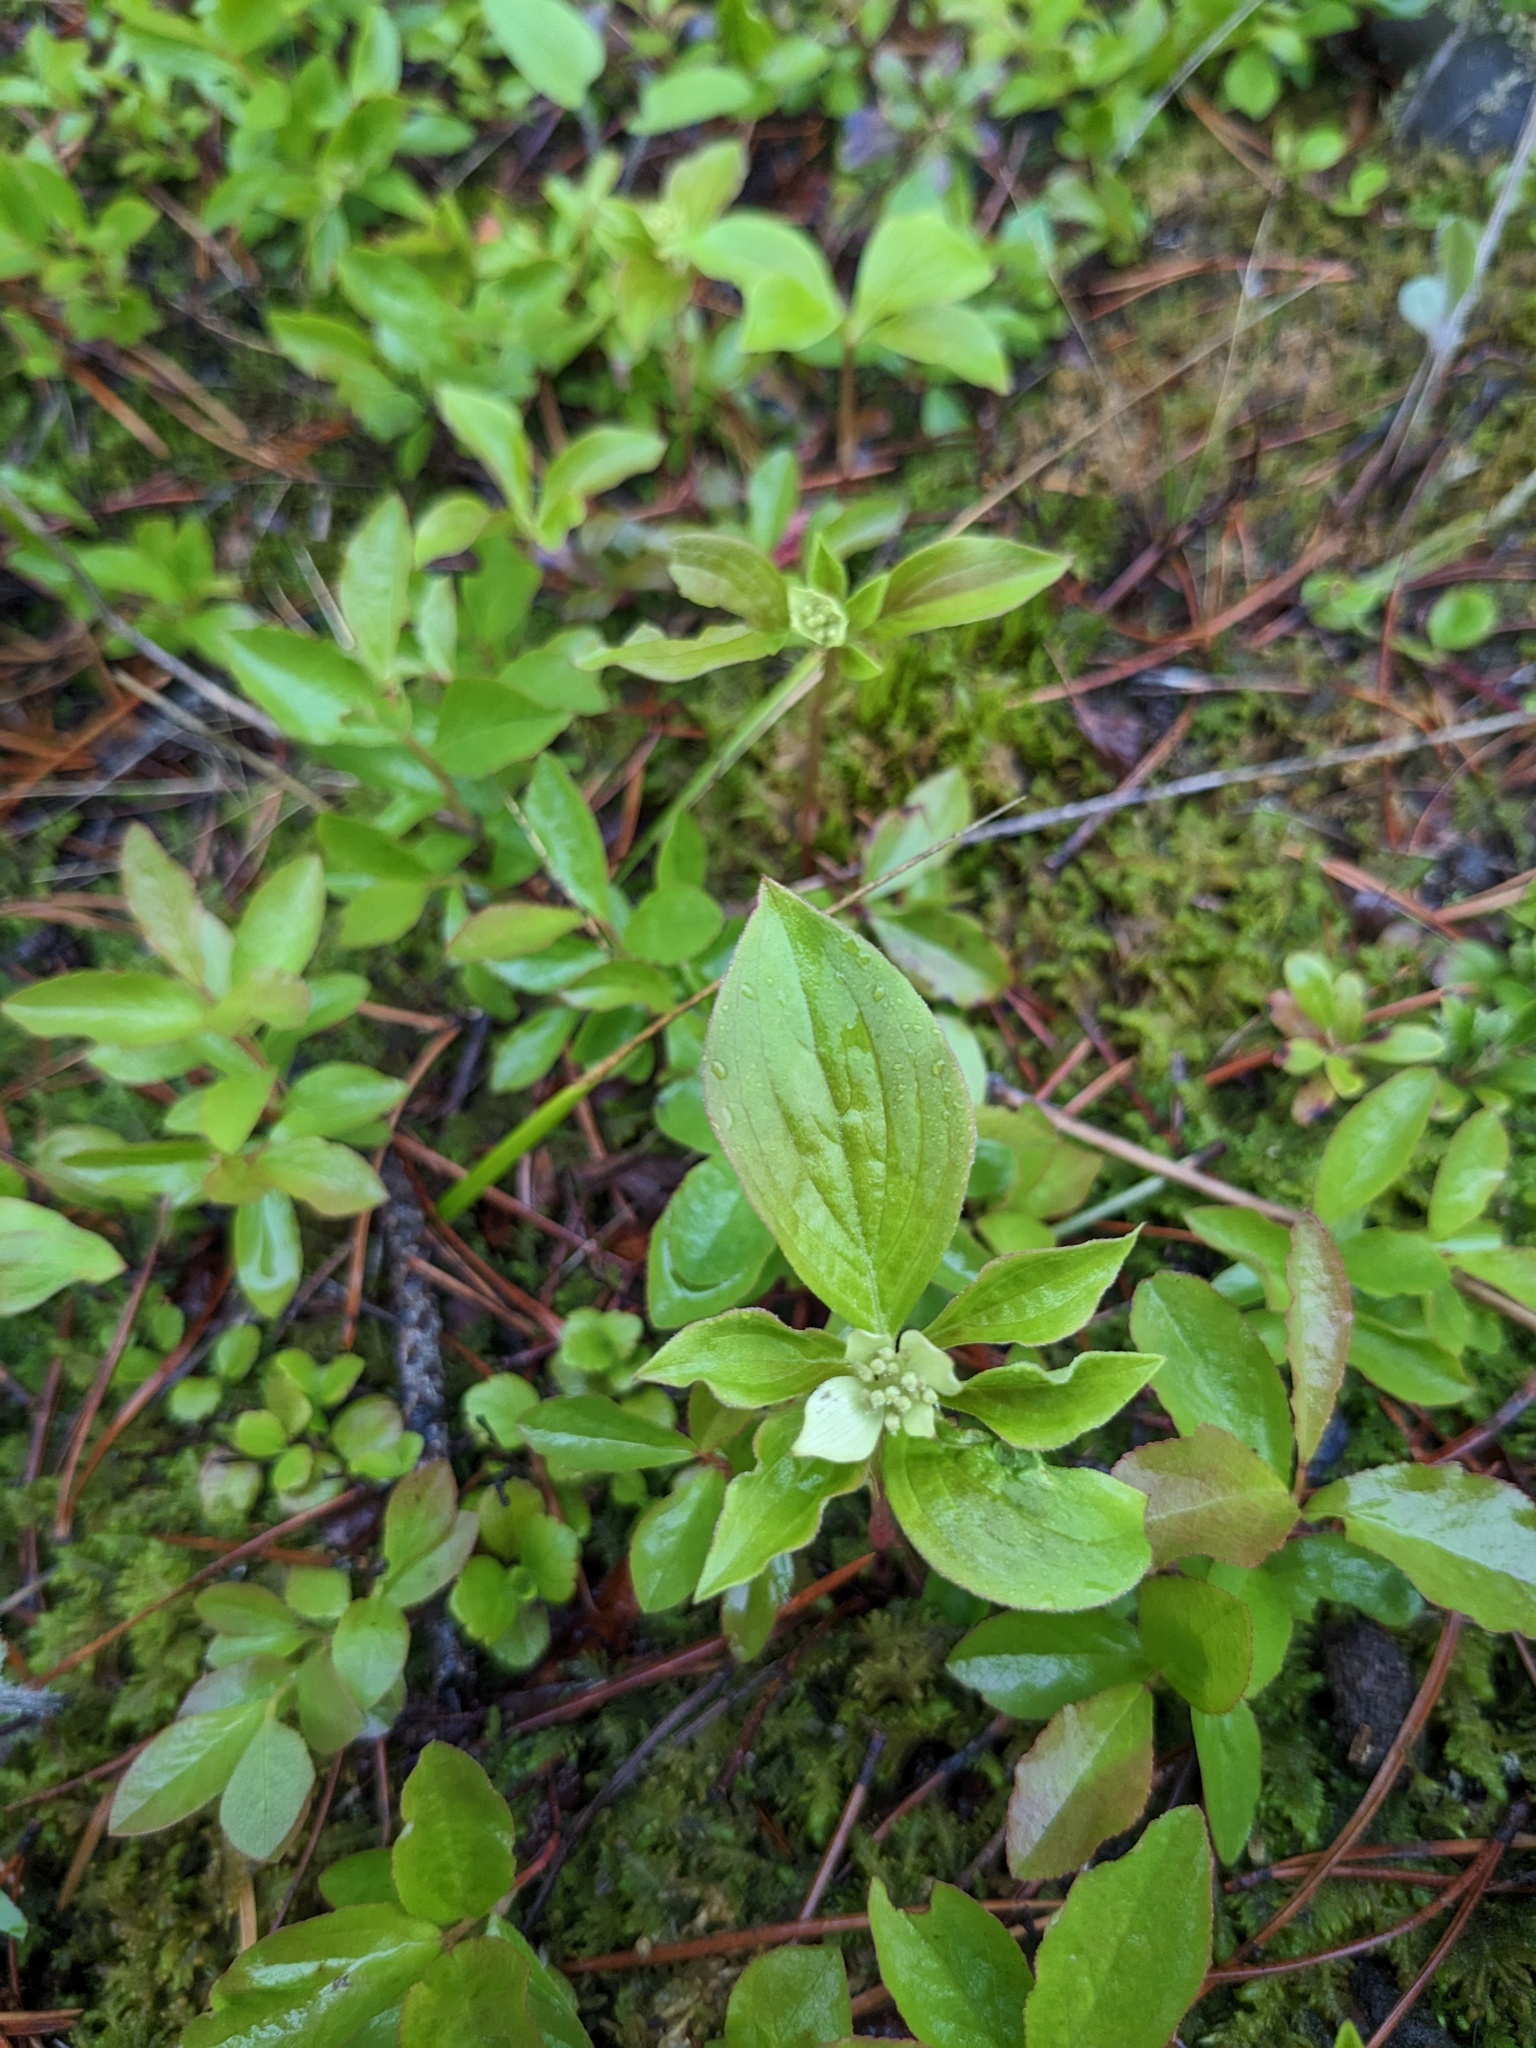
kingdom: Plantae
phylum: Tracheophyta
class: Magnoliopsida
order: Cornales
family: Cornaceae
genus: Cornus
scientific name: Cornus canadensis
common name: Creeping dogwood
